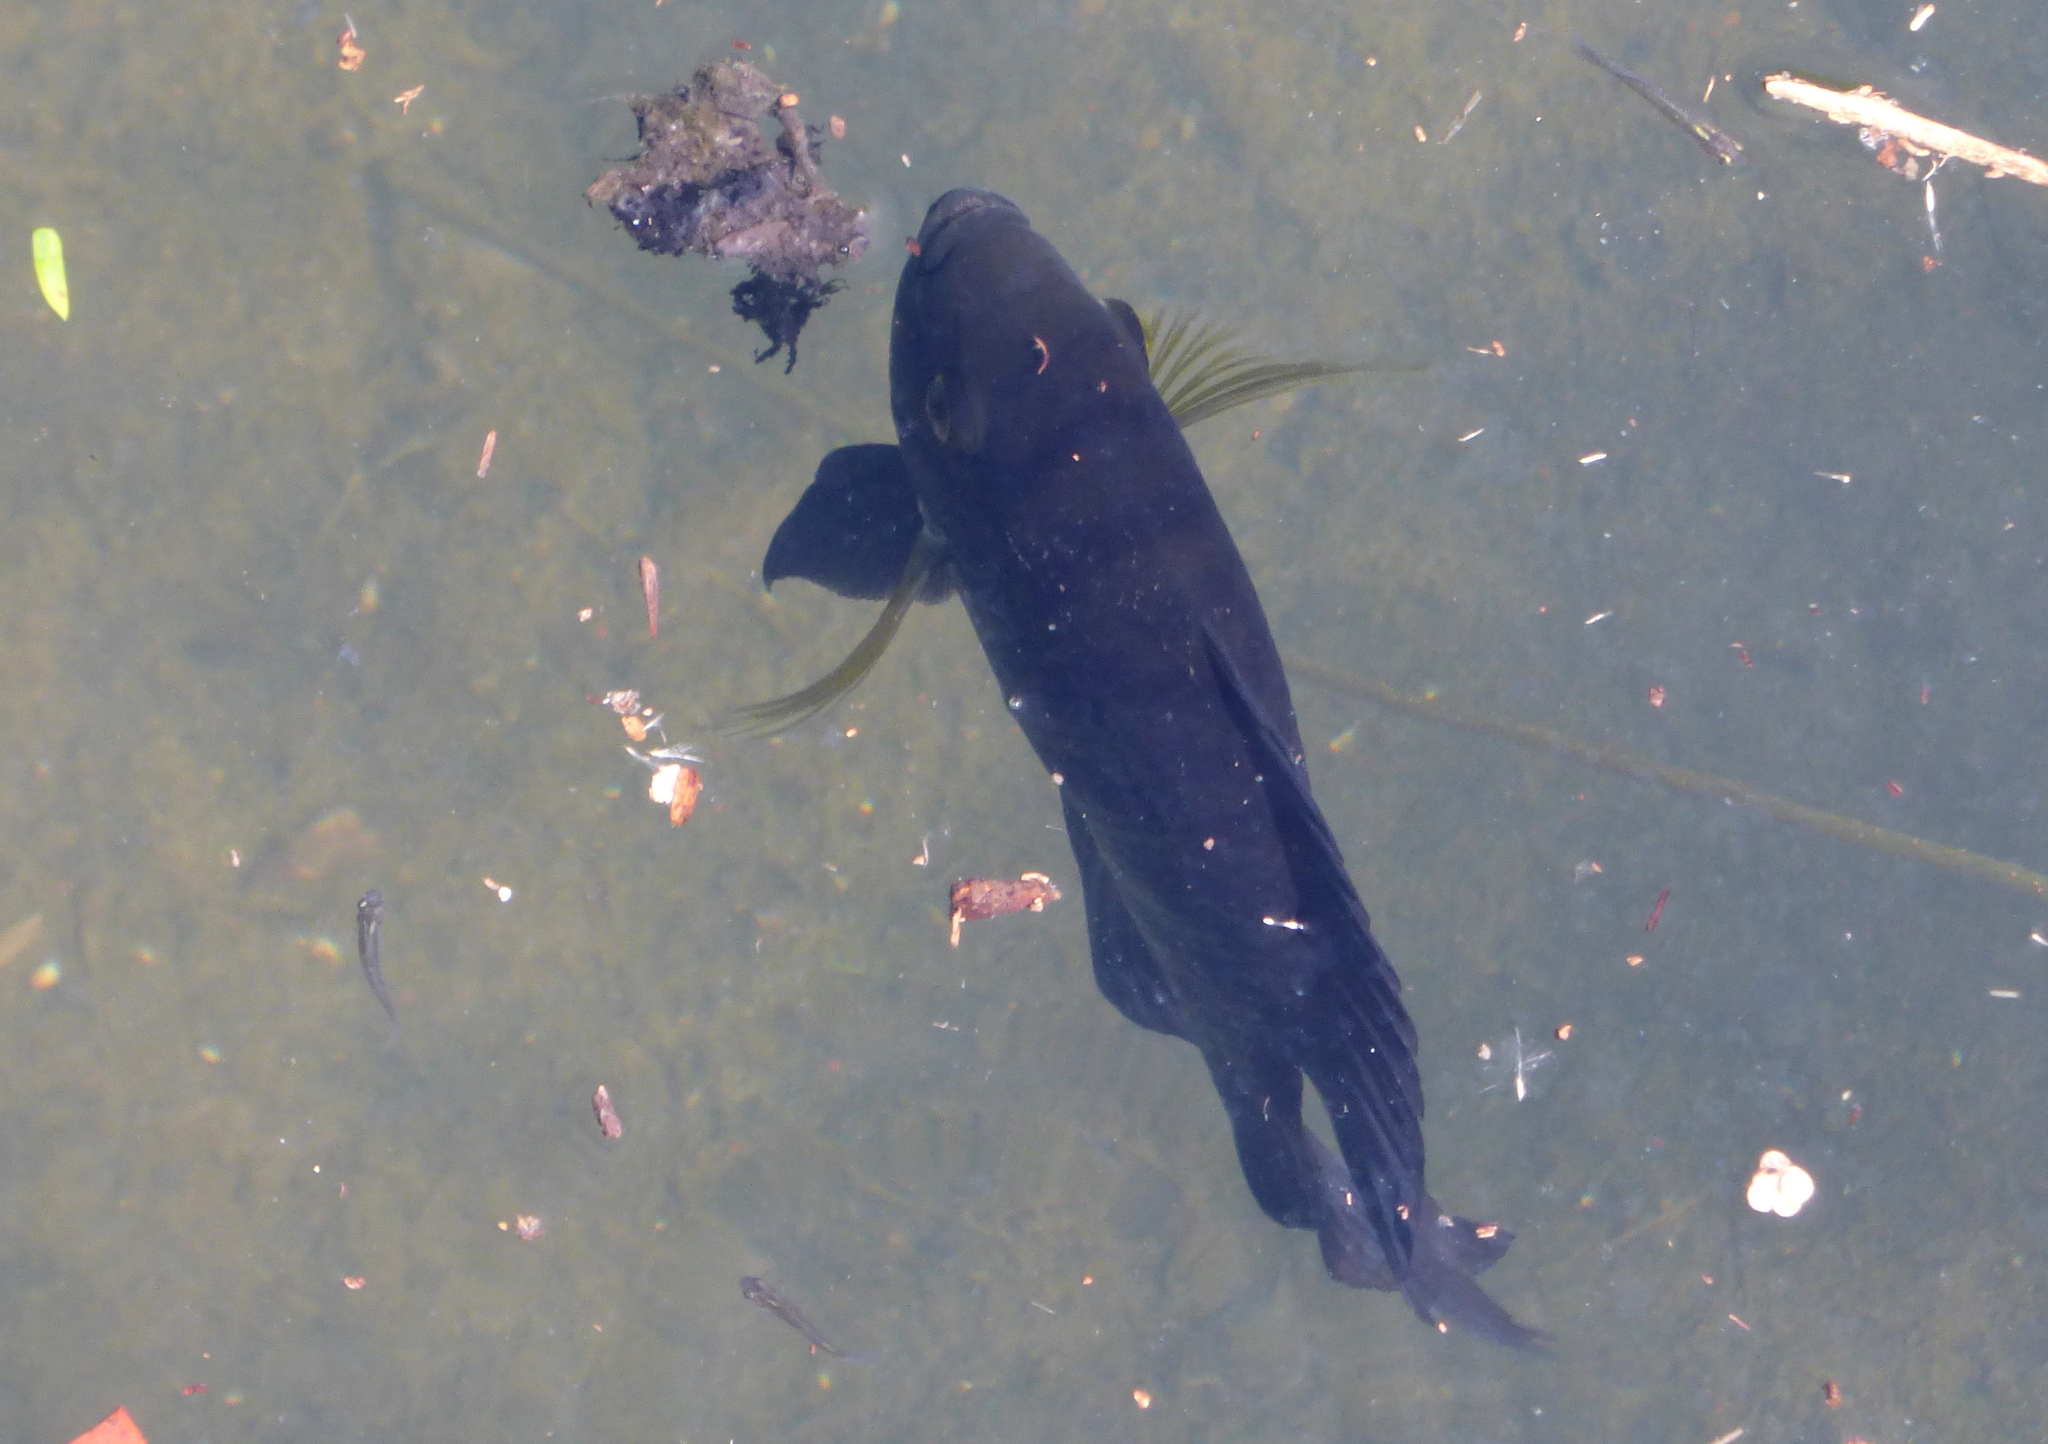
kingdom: Animalia
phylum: Chordata
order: Perciformes
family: Cichlidae
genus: Australoheros
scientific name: Australoheros facetus
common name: Chameleon cichlid
